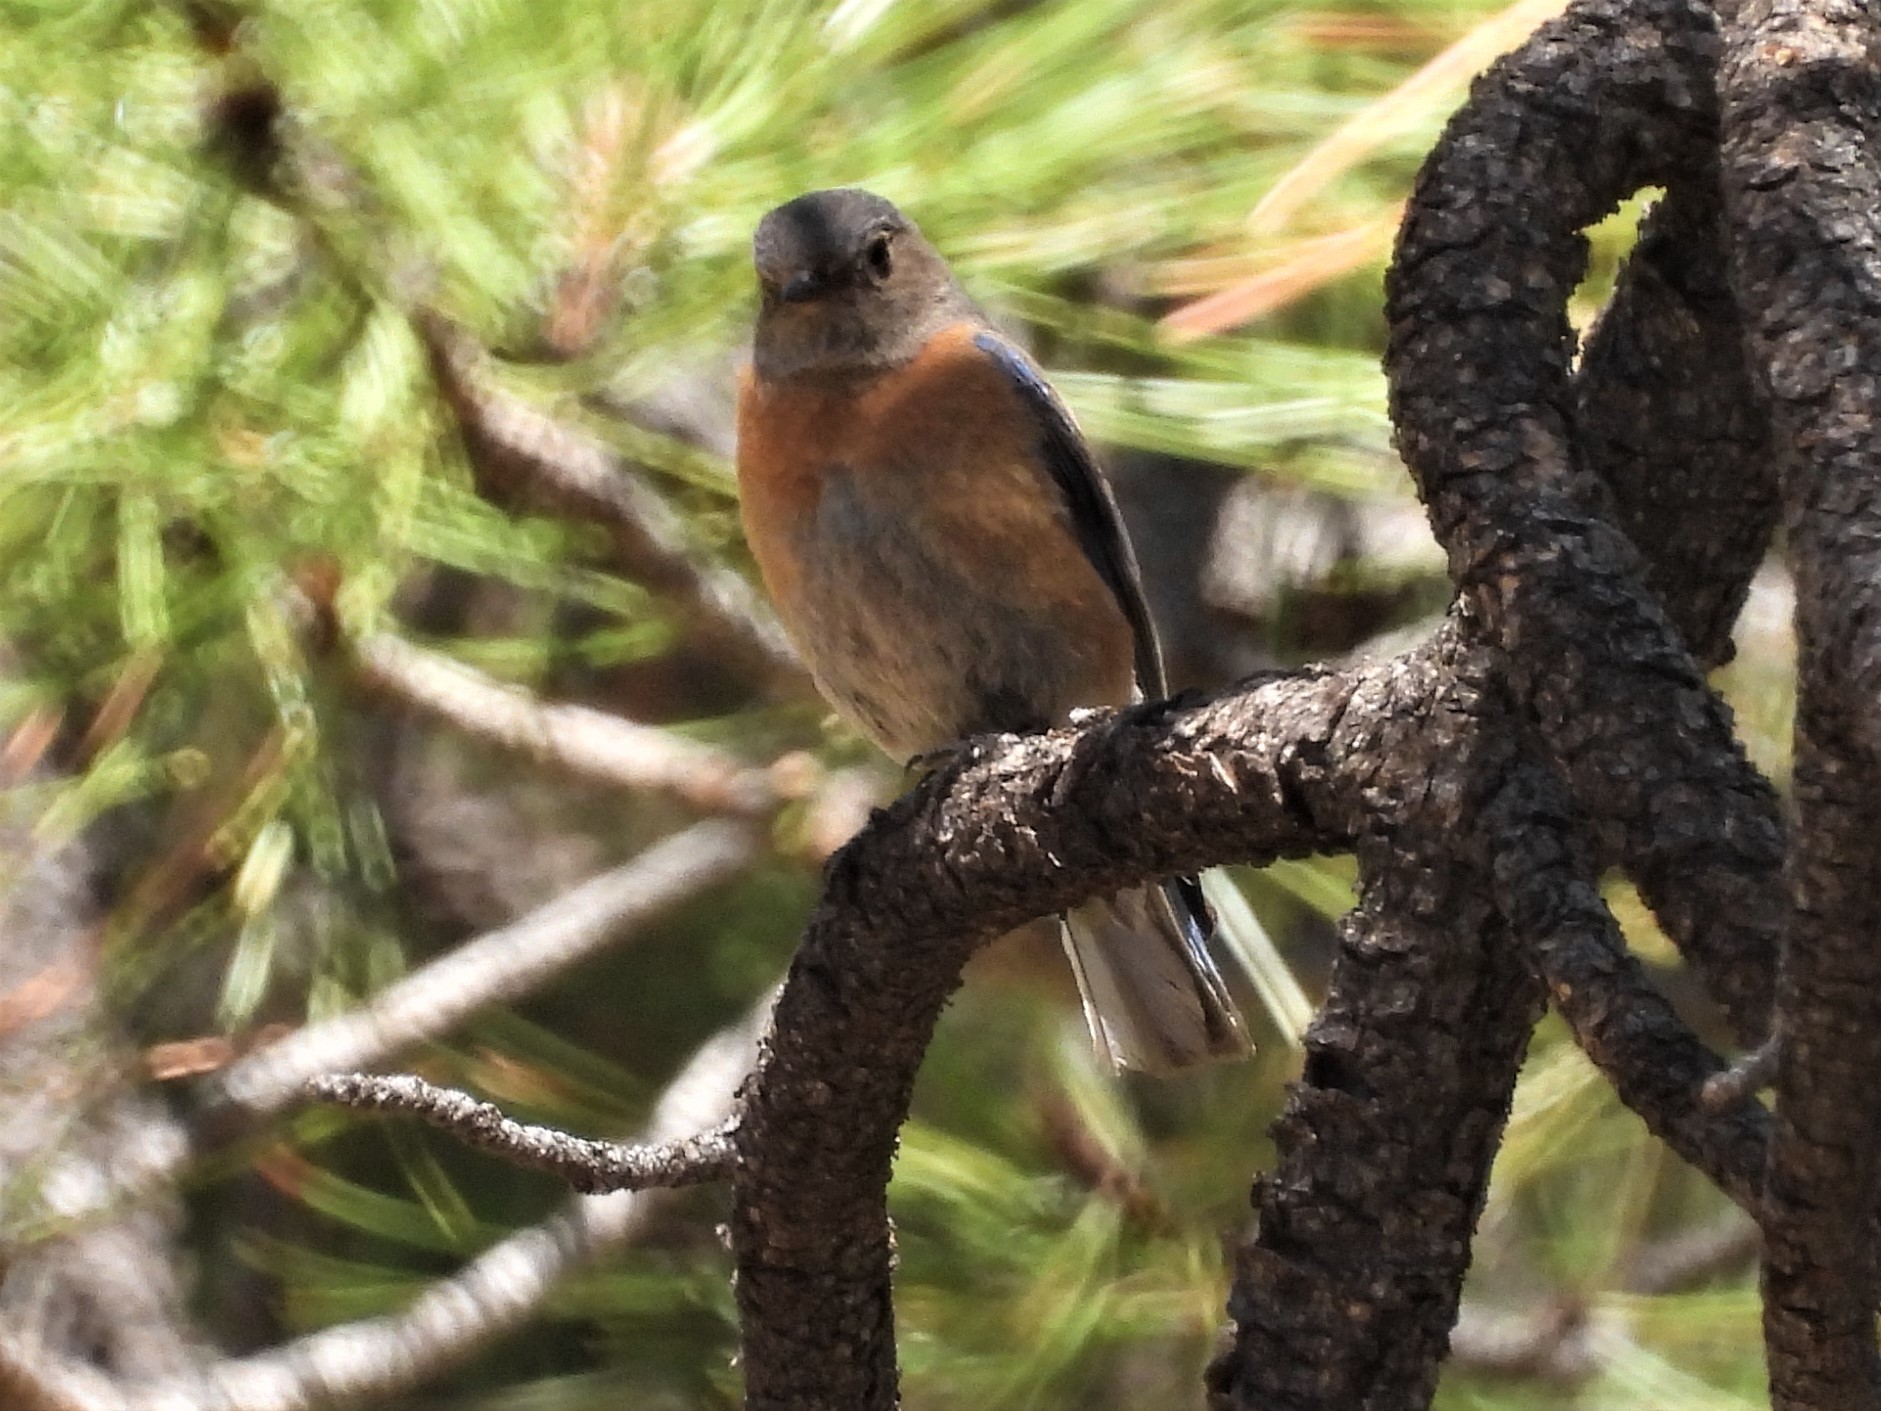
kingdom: Animalia
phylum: Chordata
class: Aves
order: Passeriformes
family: Turdidae
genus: Sialia
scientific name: Sialia mexicana
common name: Western bluebird
